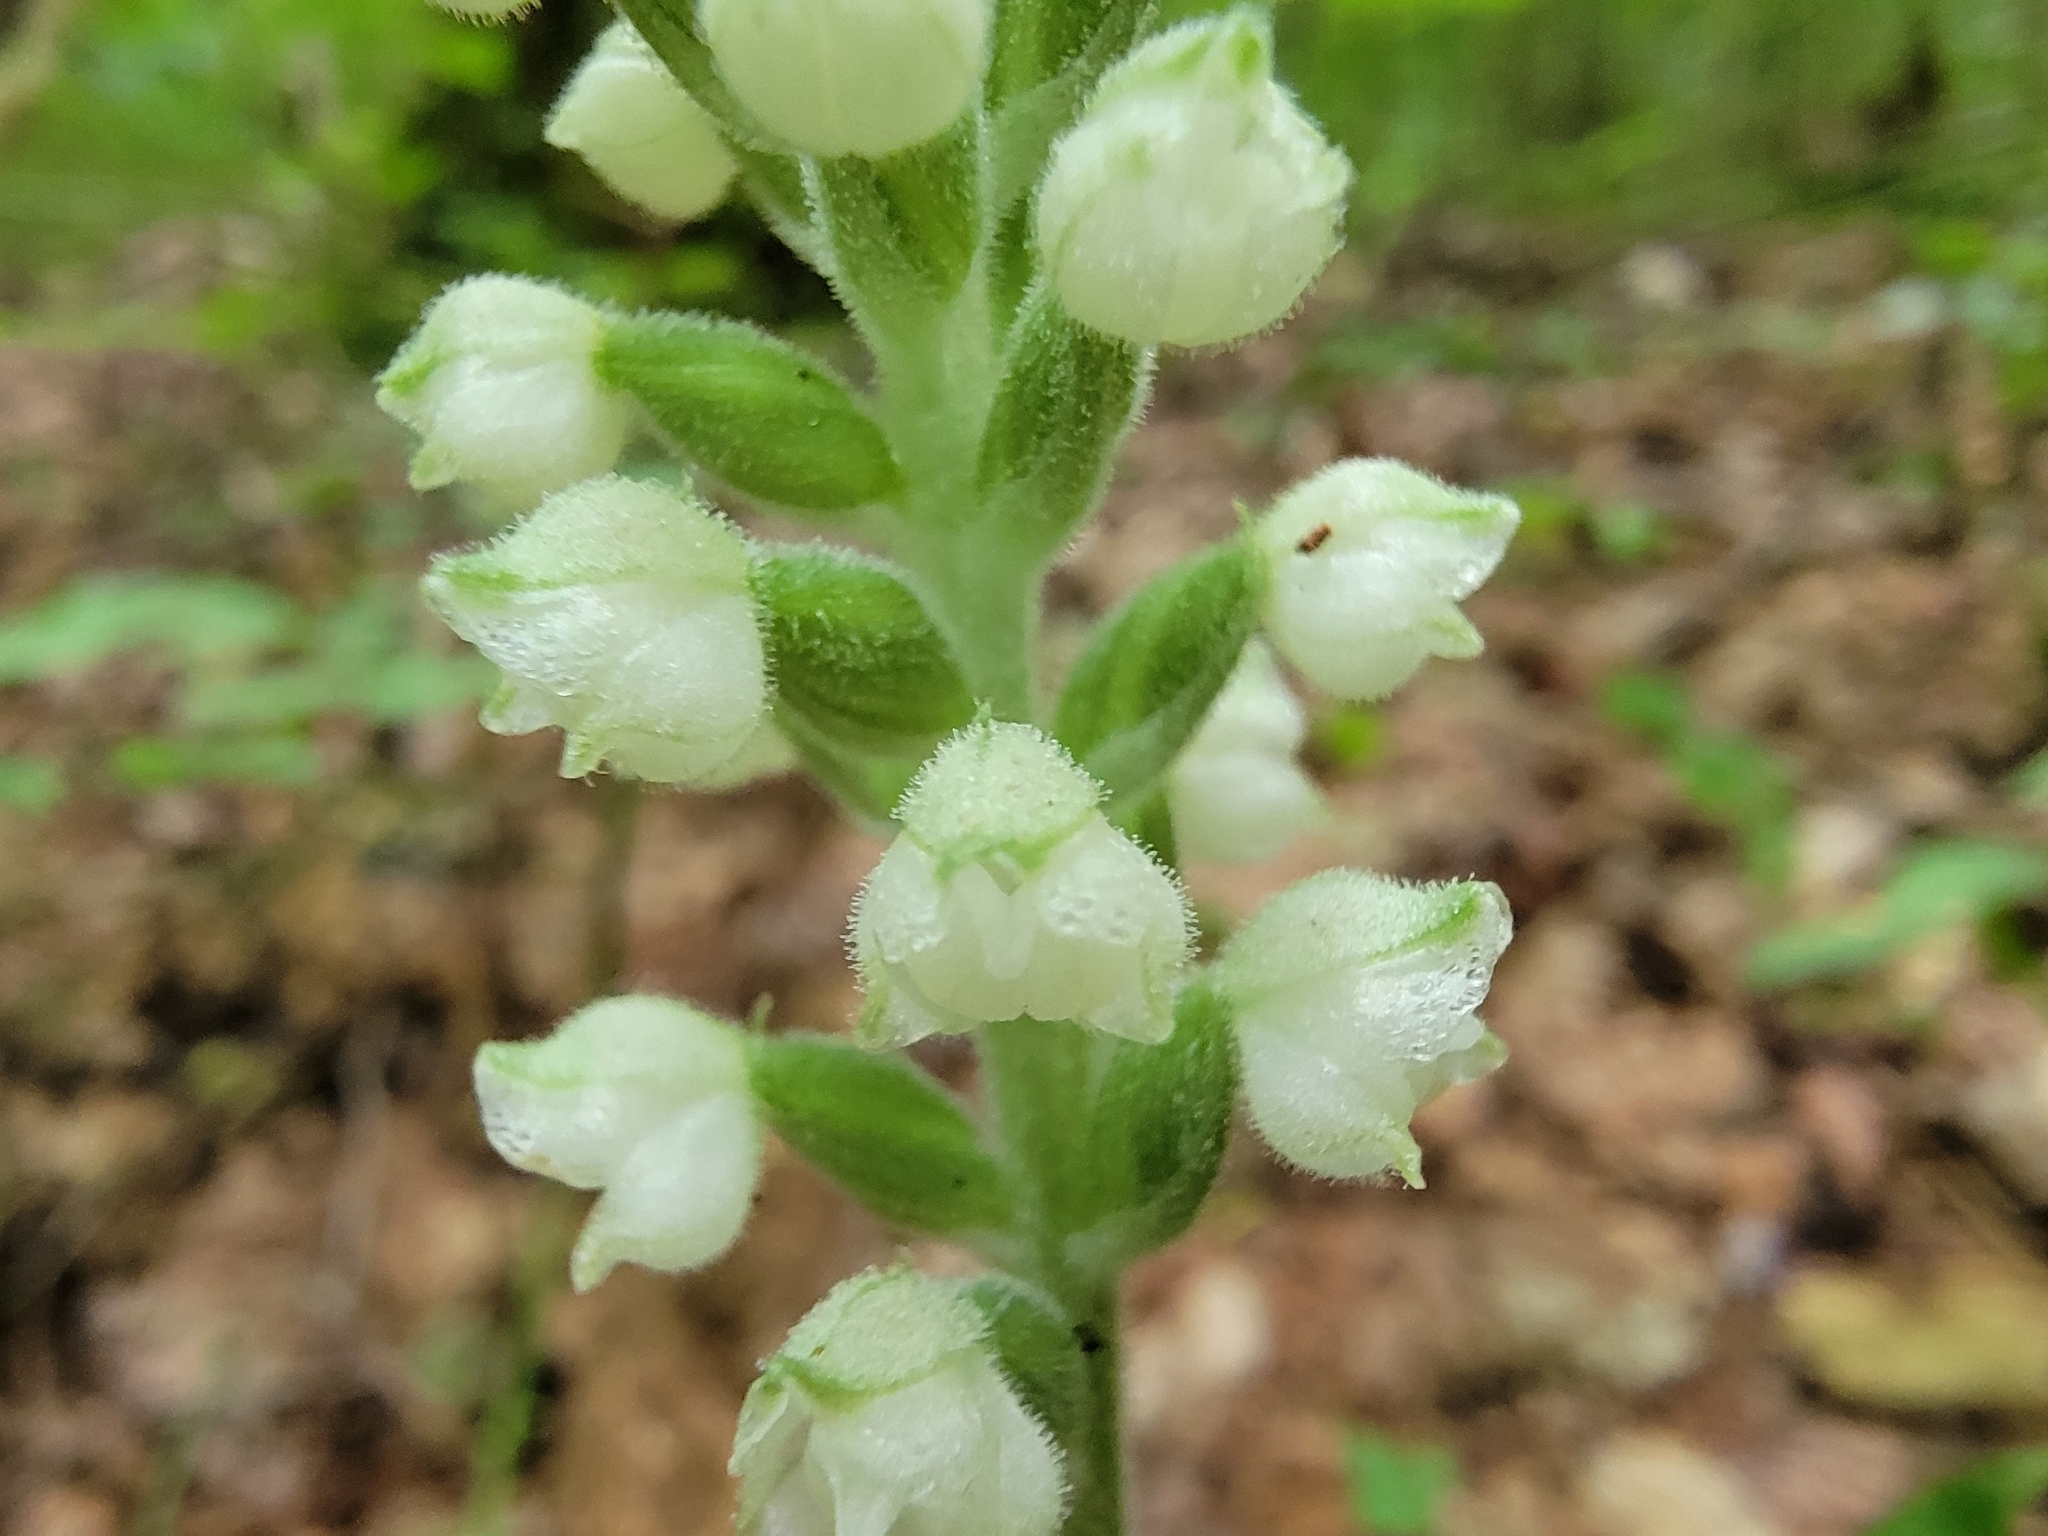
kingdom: Plantae
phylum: Tracheophyta
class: Liliopsida
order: Asparagales
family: Orchidaceae
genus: Goodyera
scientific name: Goodyera pubescens
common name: Downy rattlesnake-plantain
